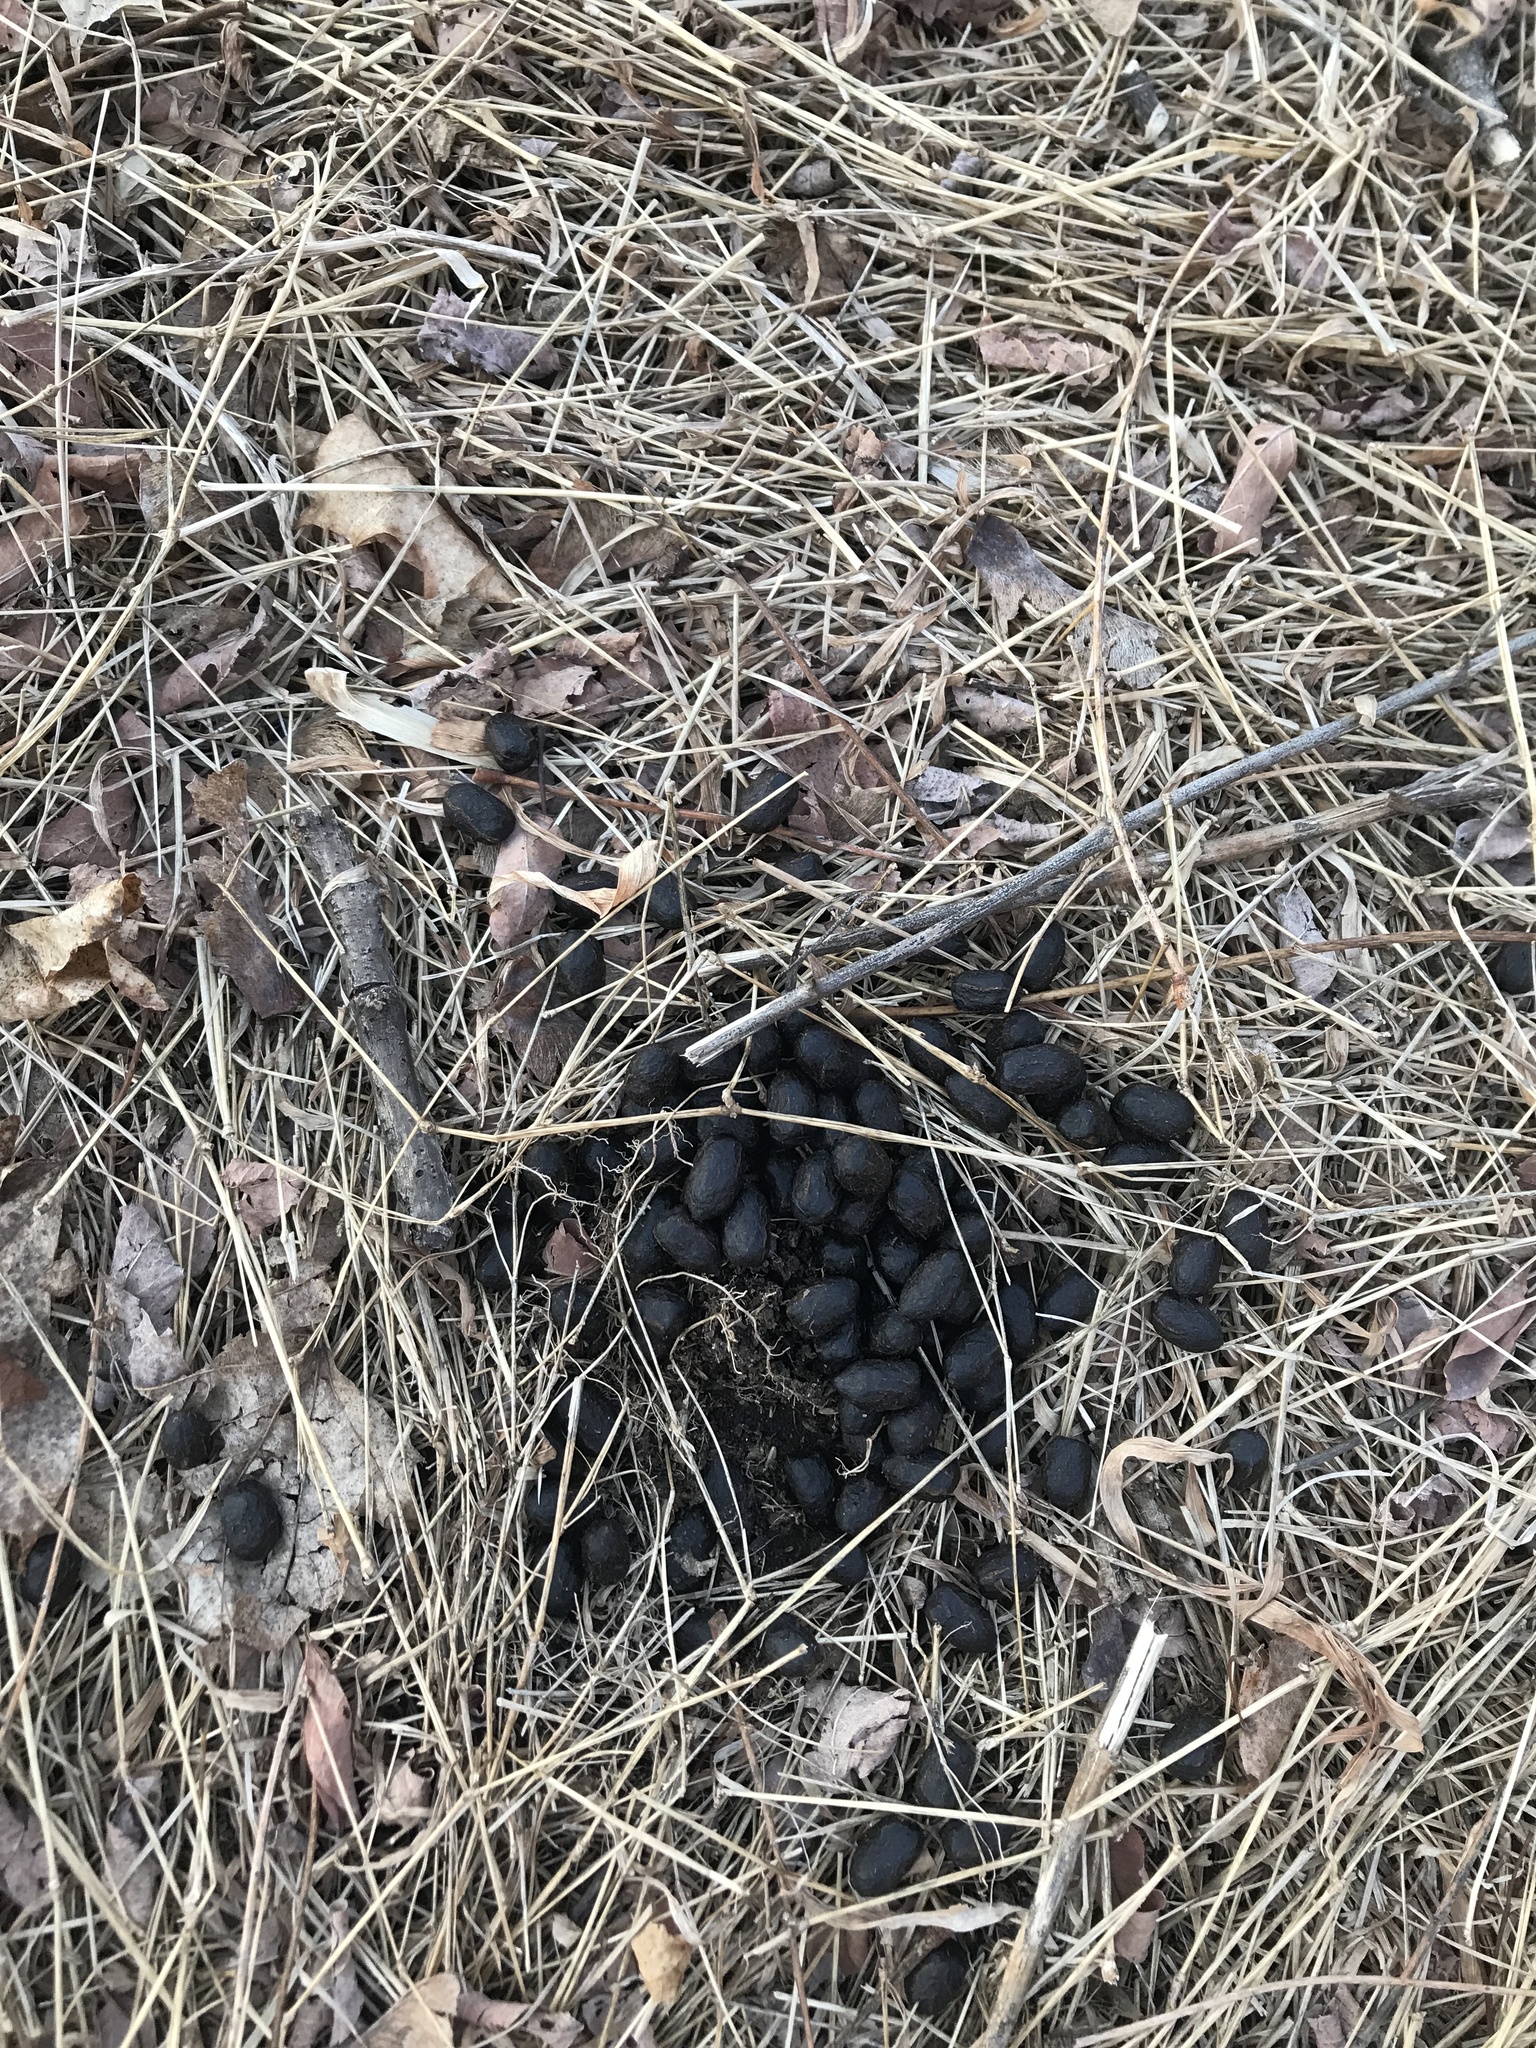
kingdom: Animalia
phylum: Chordata
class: Mammalia
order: Artiodactyla
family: Cervidae
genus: Odocoileus
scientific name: Odocoileus virginianus
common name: White-tailed deer
